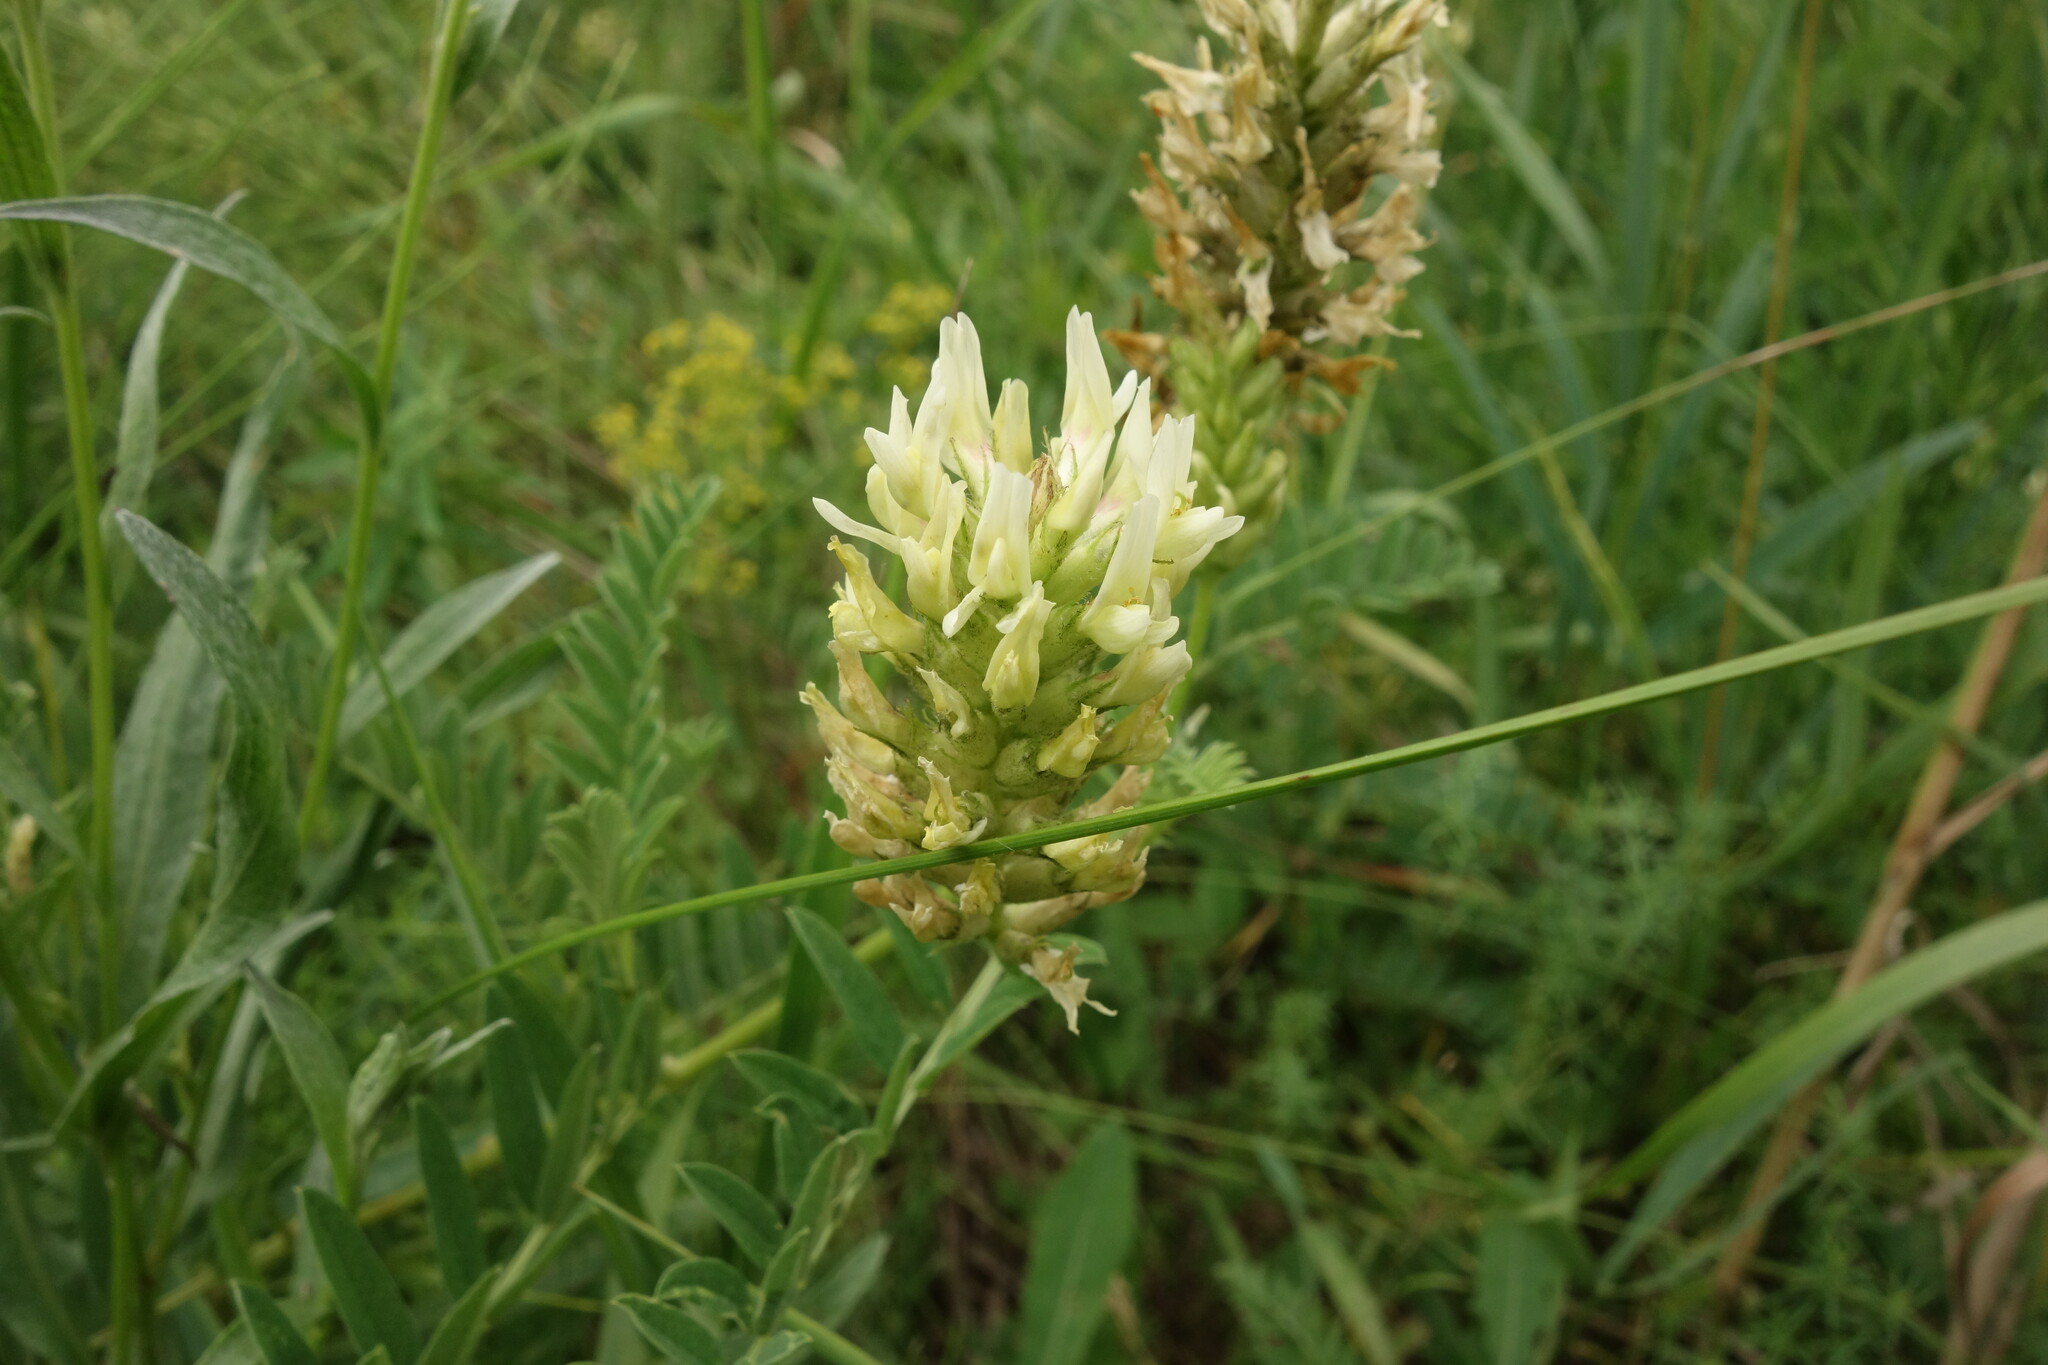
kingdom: Plantae
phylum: Tracheophyta
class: Magnoliopsida
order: Fabales
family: Fabaceae
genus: Astragalus
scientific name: Astragalus cicer
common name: Chick-pea milk-vetch
